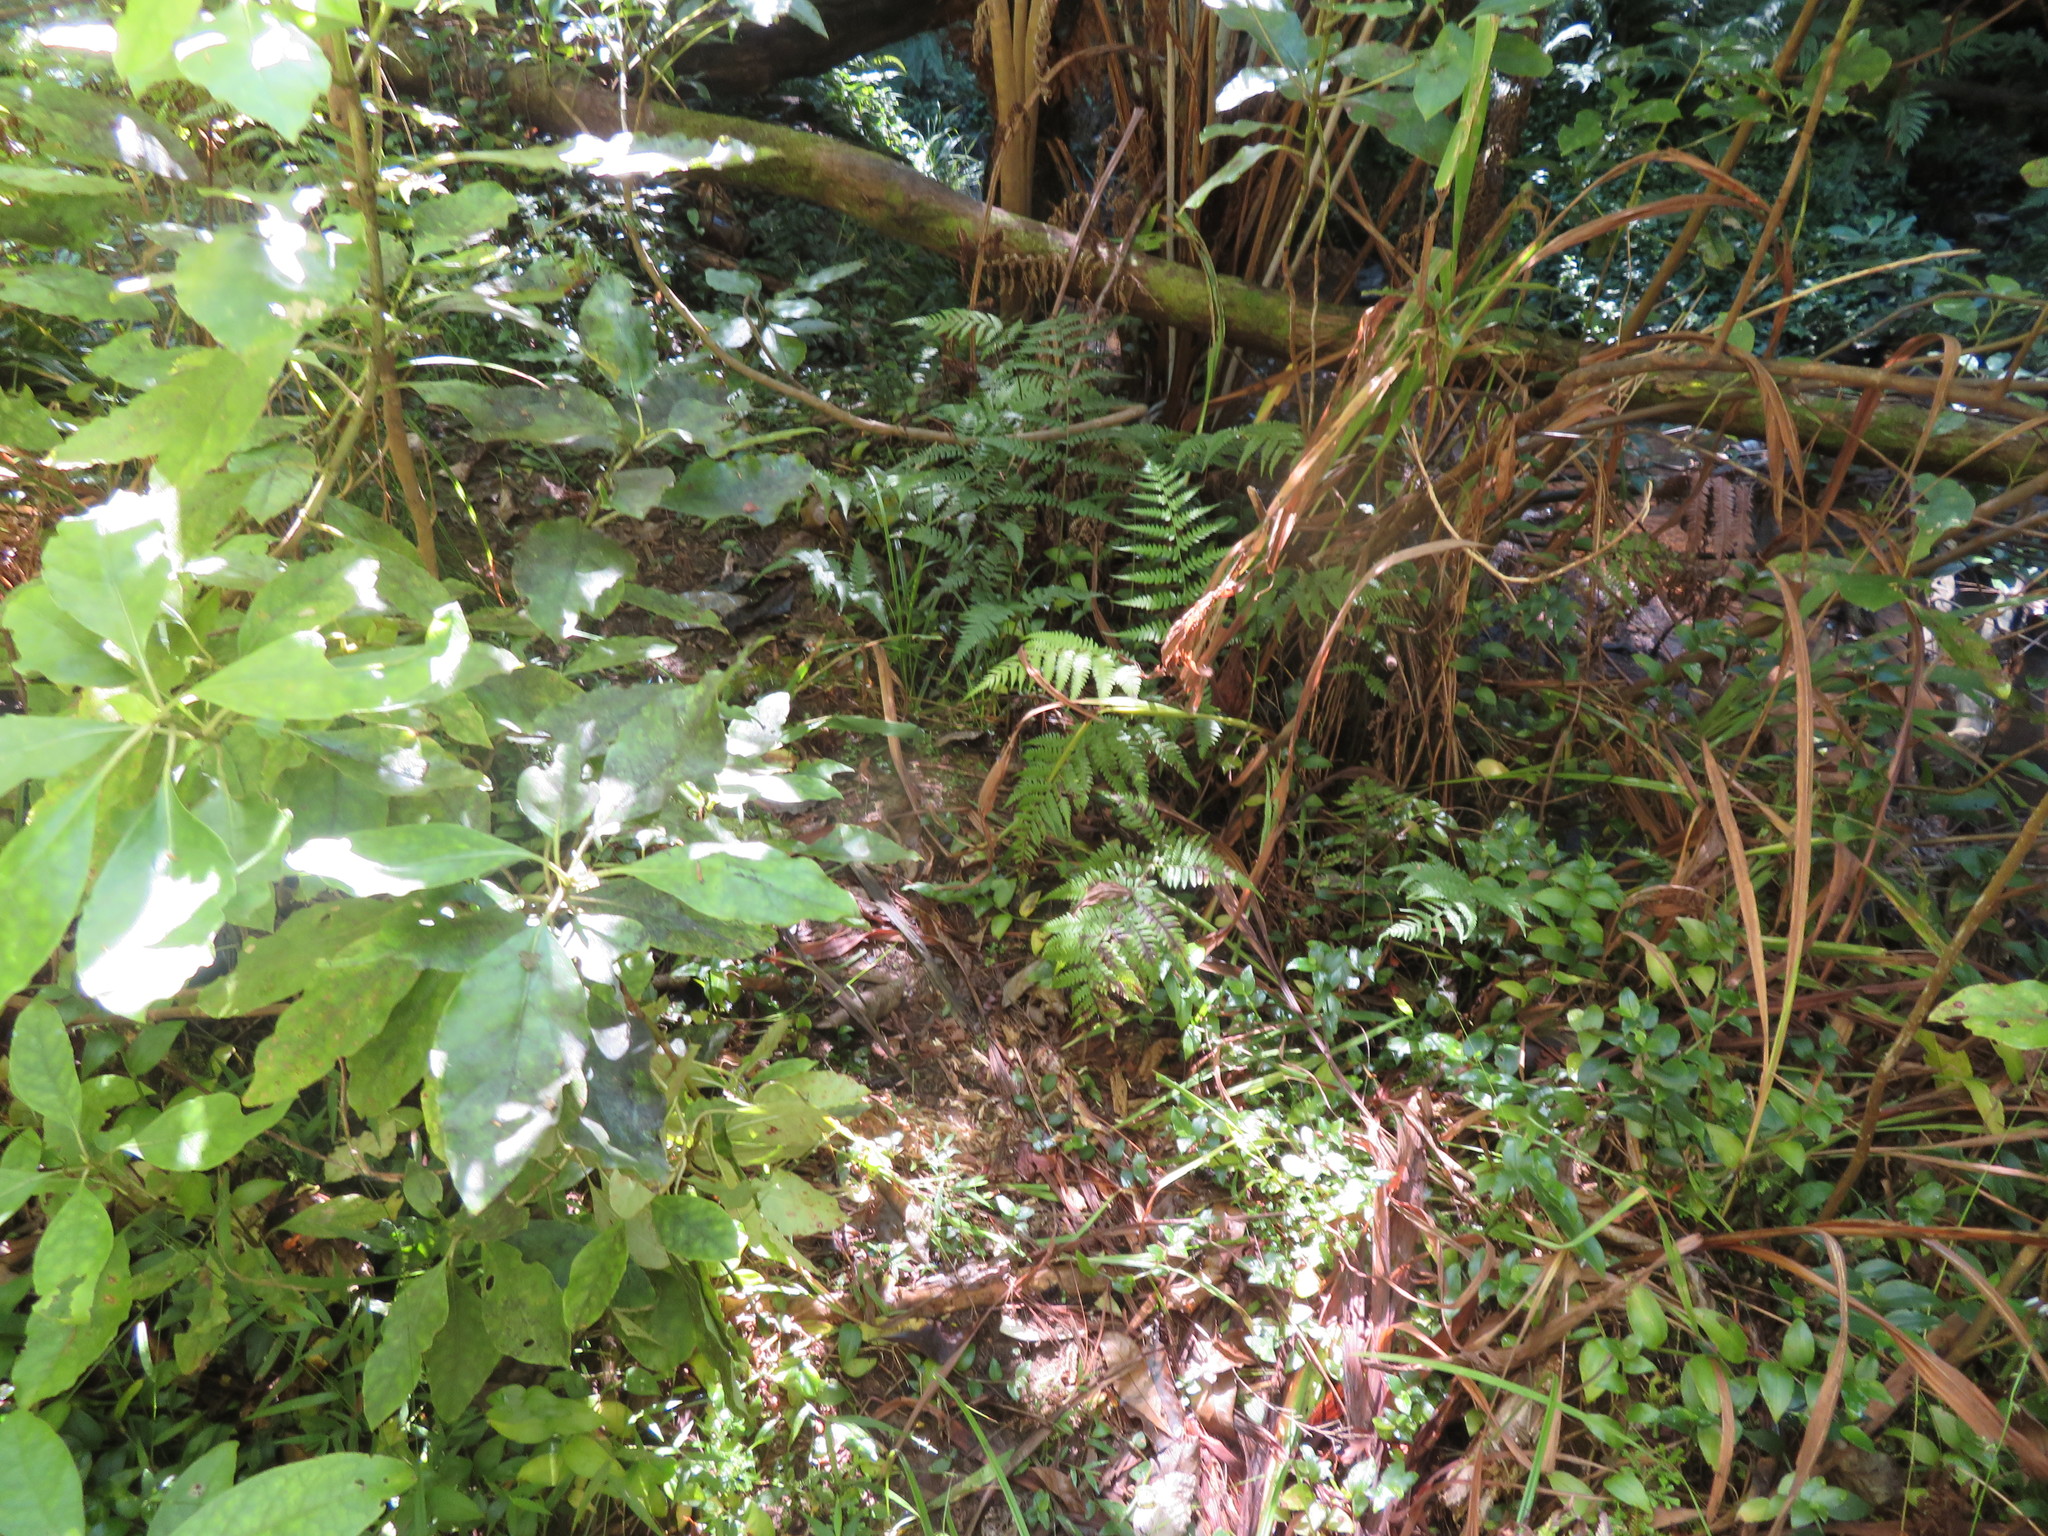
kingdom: Plantae
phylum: Tracheophyta
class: Liliopsida
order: Asparagales
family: Iridaceae
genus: Crocosmia
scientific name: Crocosmia crocosmiiflora
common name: Montbretia
